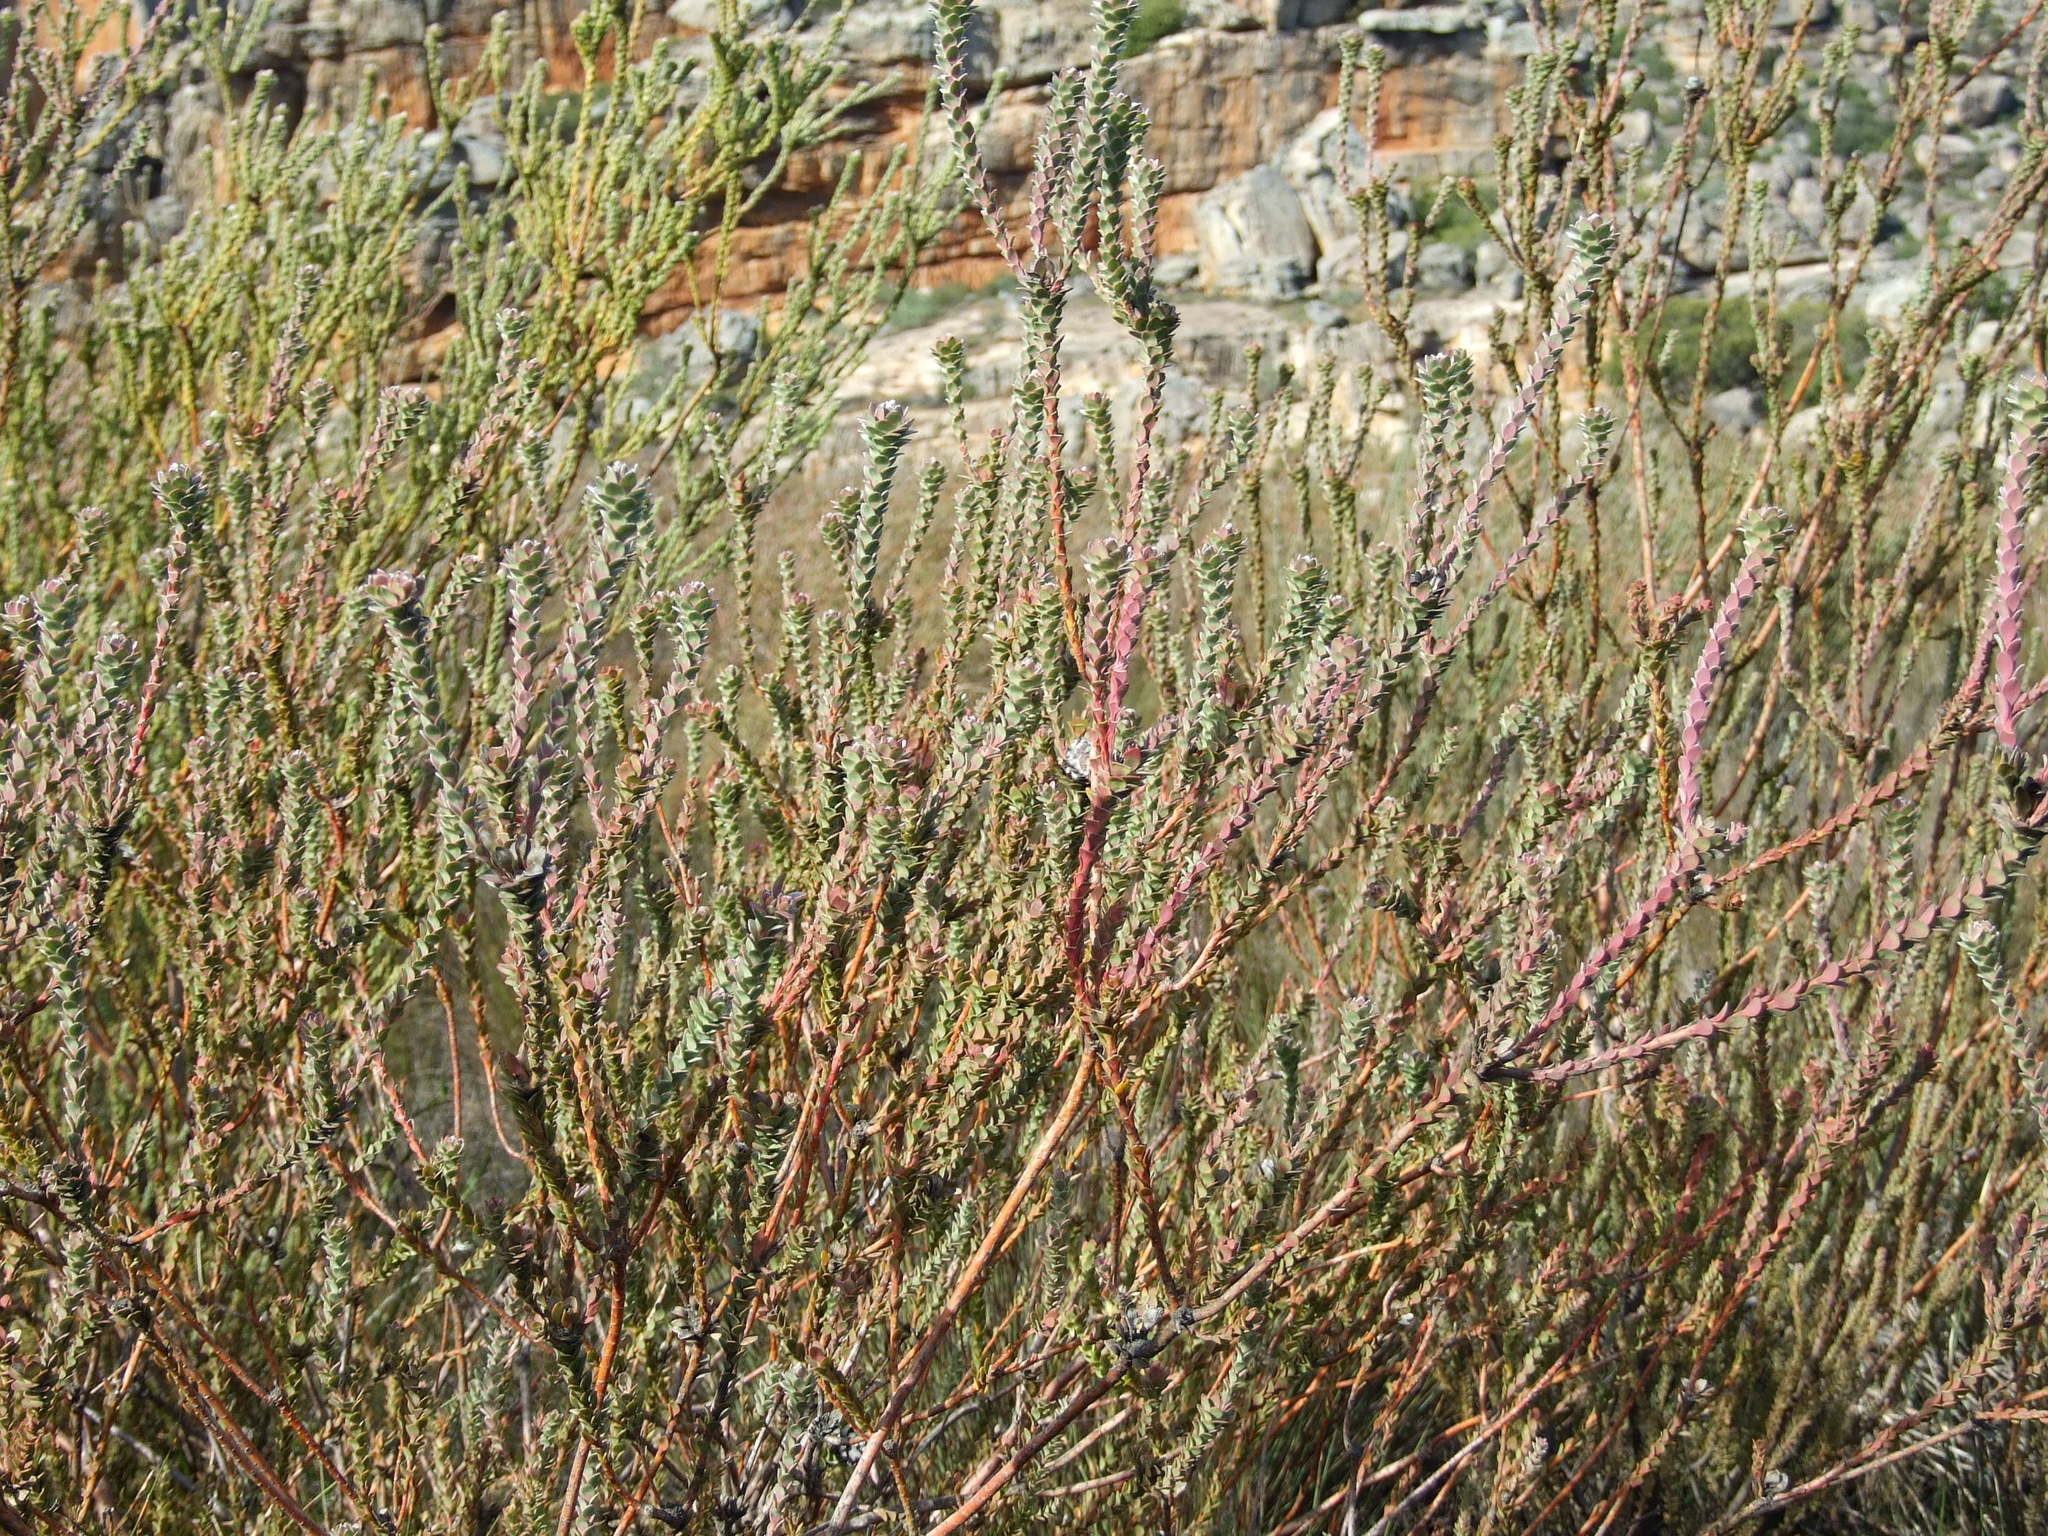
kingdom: Plantae
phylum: Tracheophyta
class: Magnoliopsida
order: Proteales
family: Proteaceae
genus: Leucadendron
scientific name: Leucadendron concavum
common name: Pakhuis conebush
